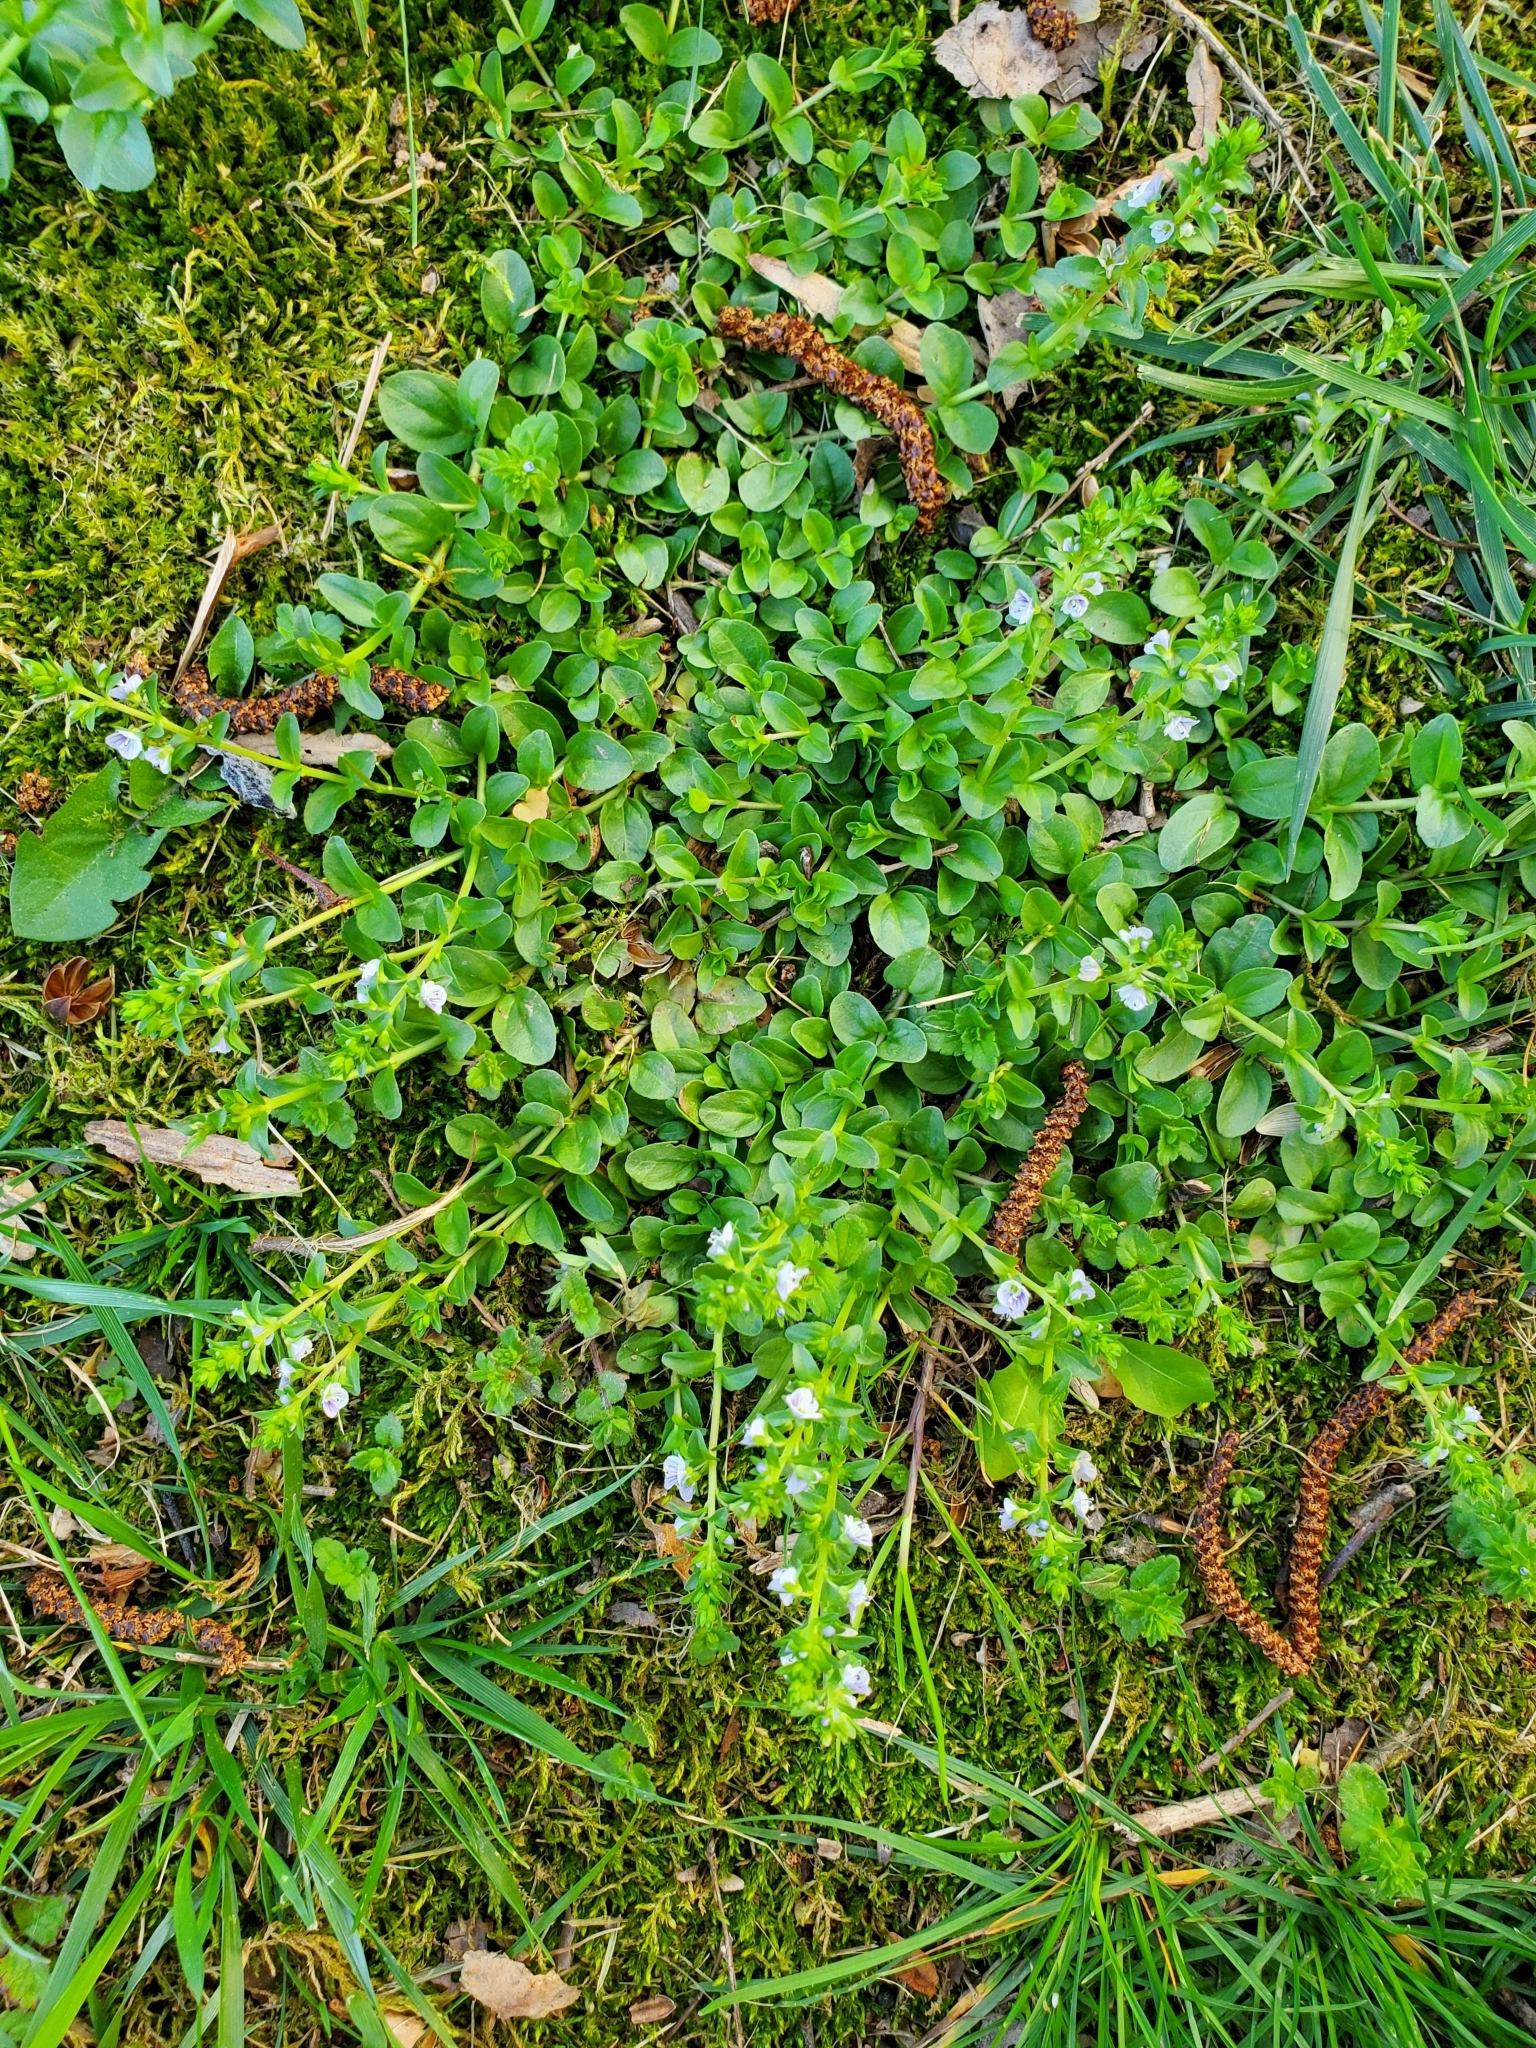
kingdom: Plantae
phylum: Tracheophyta
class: Magnoliopsida
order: Lamiales
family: Plantaginaceae
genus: Veronica
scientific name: Veronica serpyllifolia
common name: Thyme-leaved speedwell
